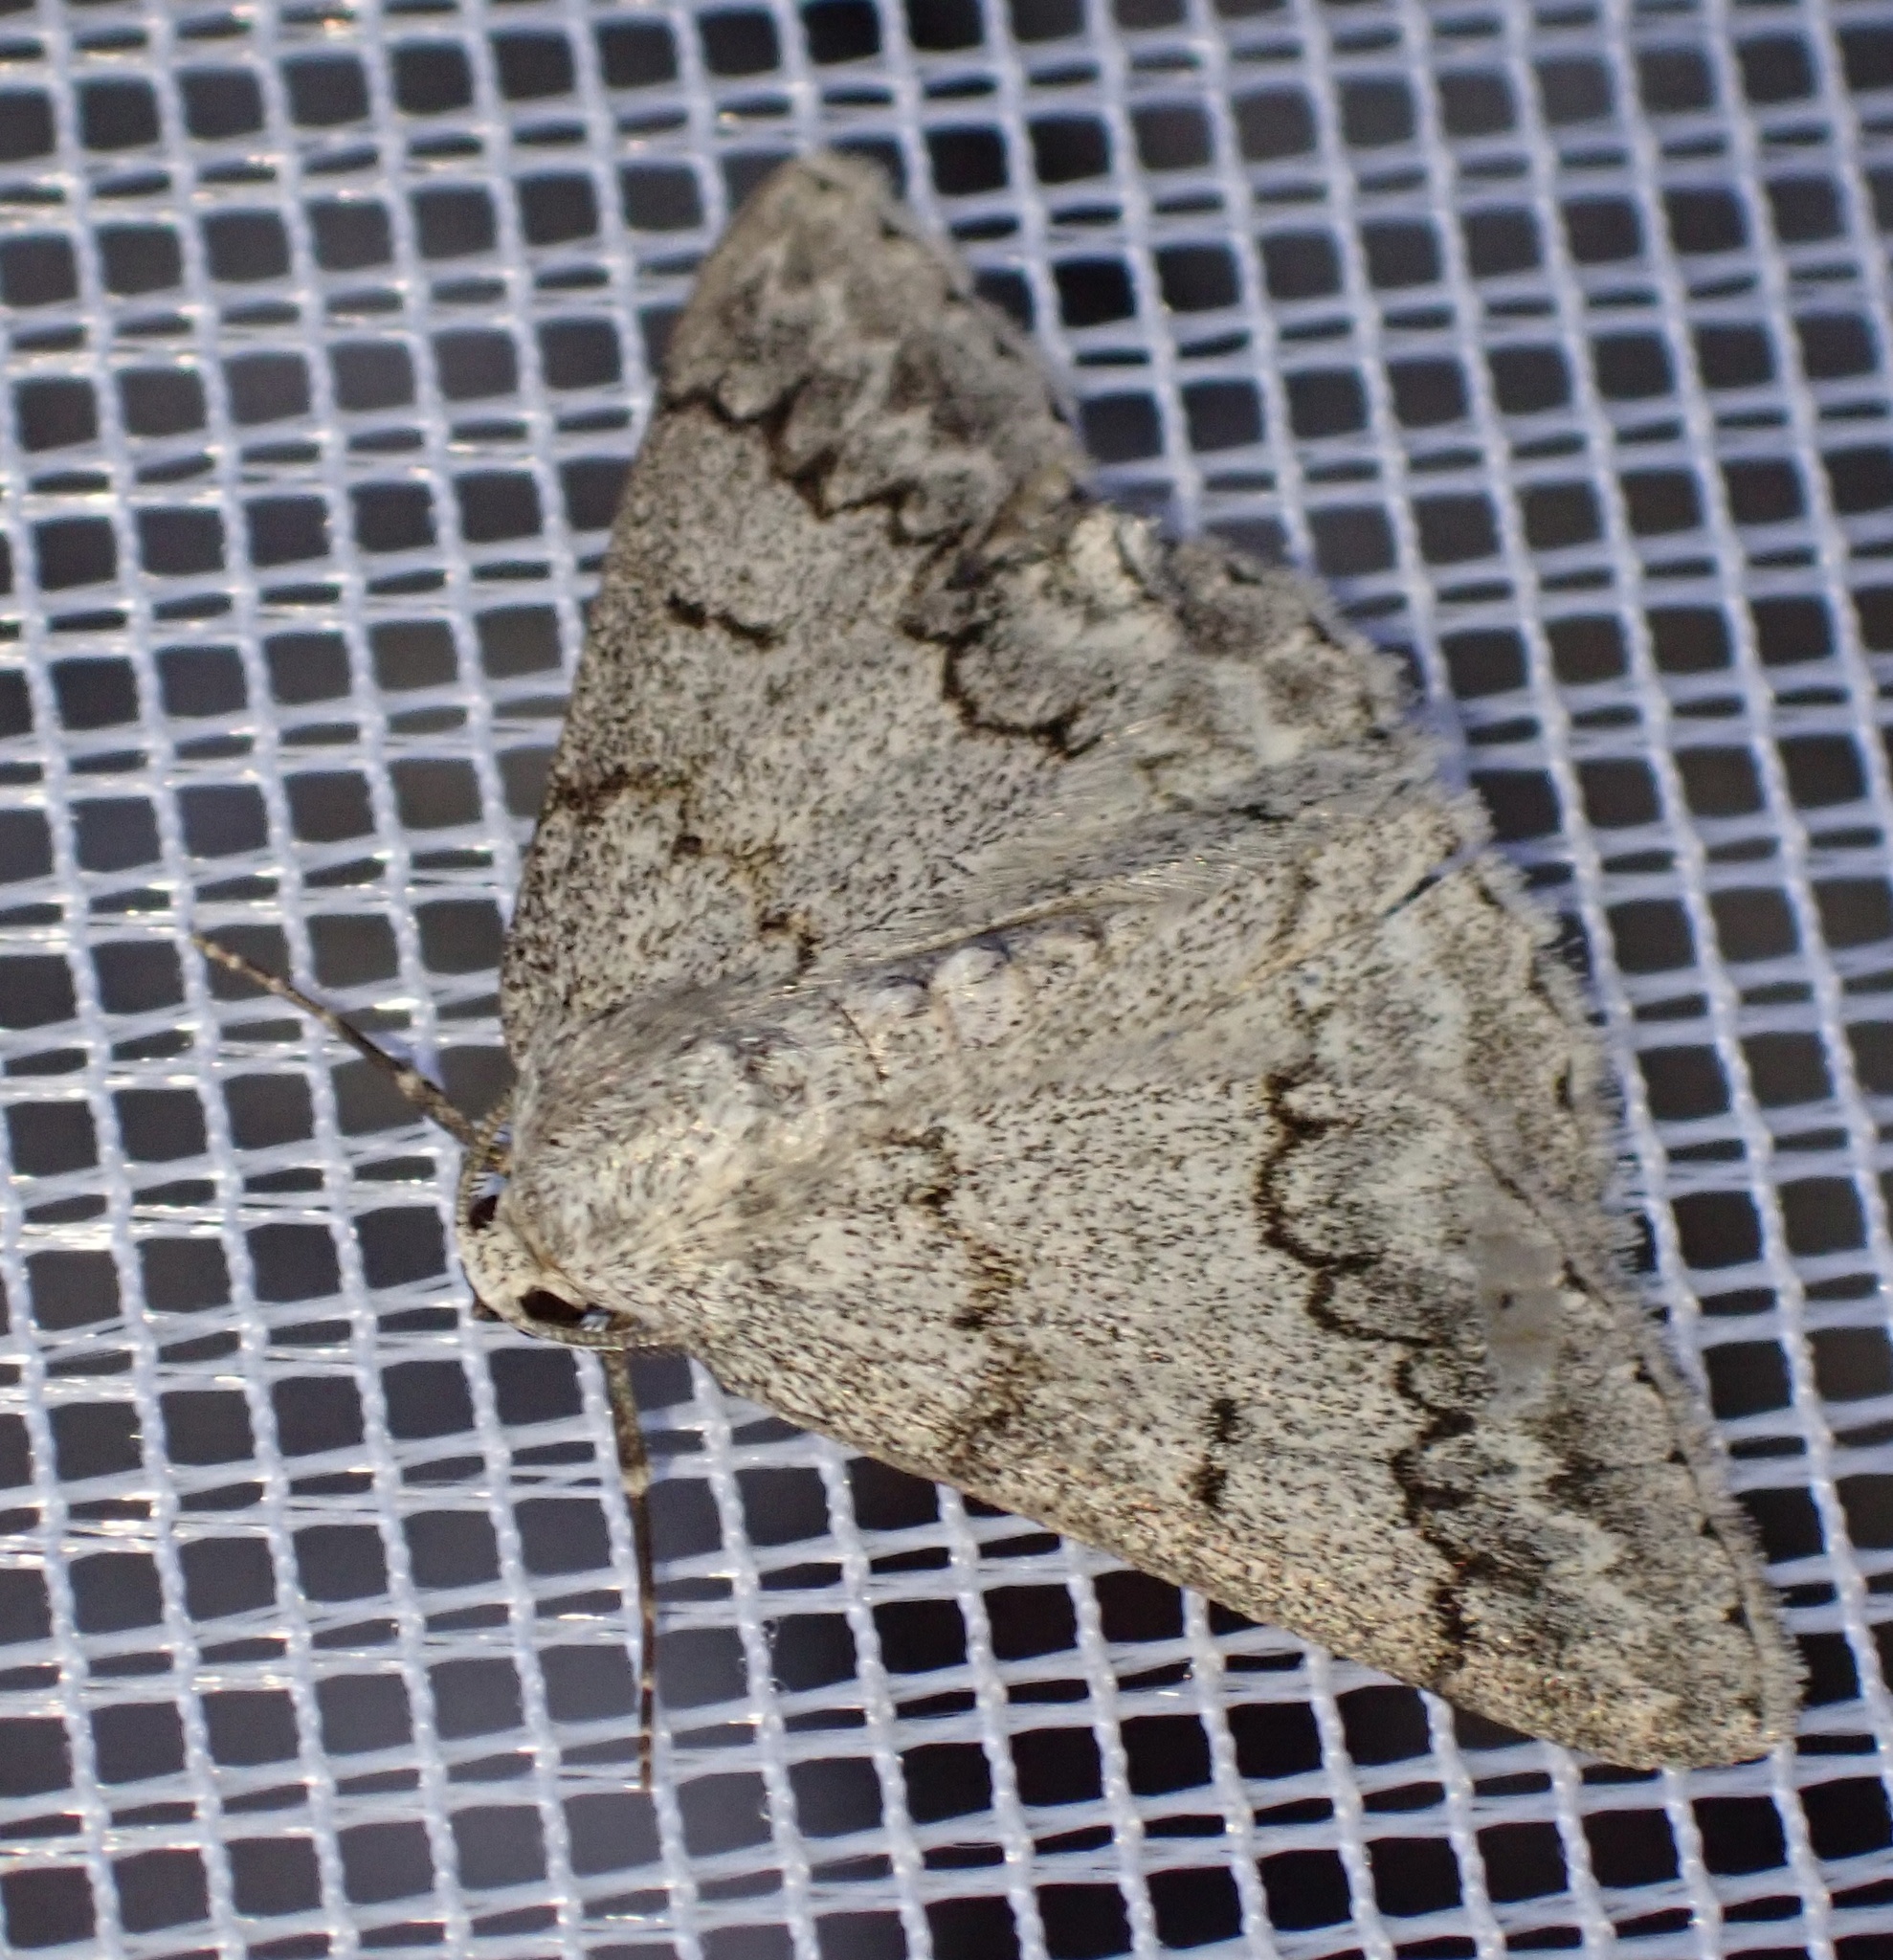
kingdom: Animalia
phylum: Arthropoda
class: Insecta
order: Lepidoptera
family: Geometridae
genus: Pseudoterpna
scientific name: Pseudoterpna coronillaria
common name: Jersey emerald
